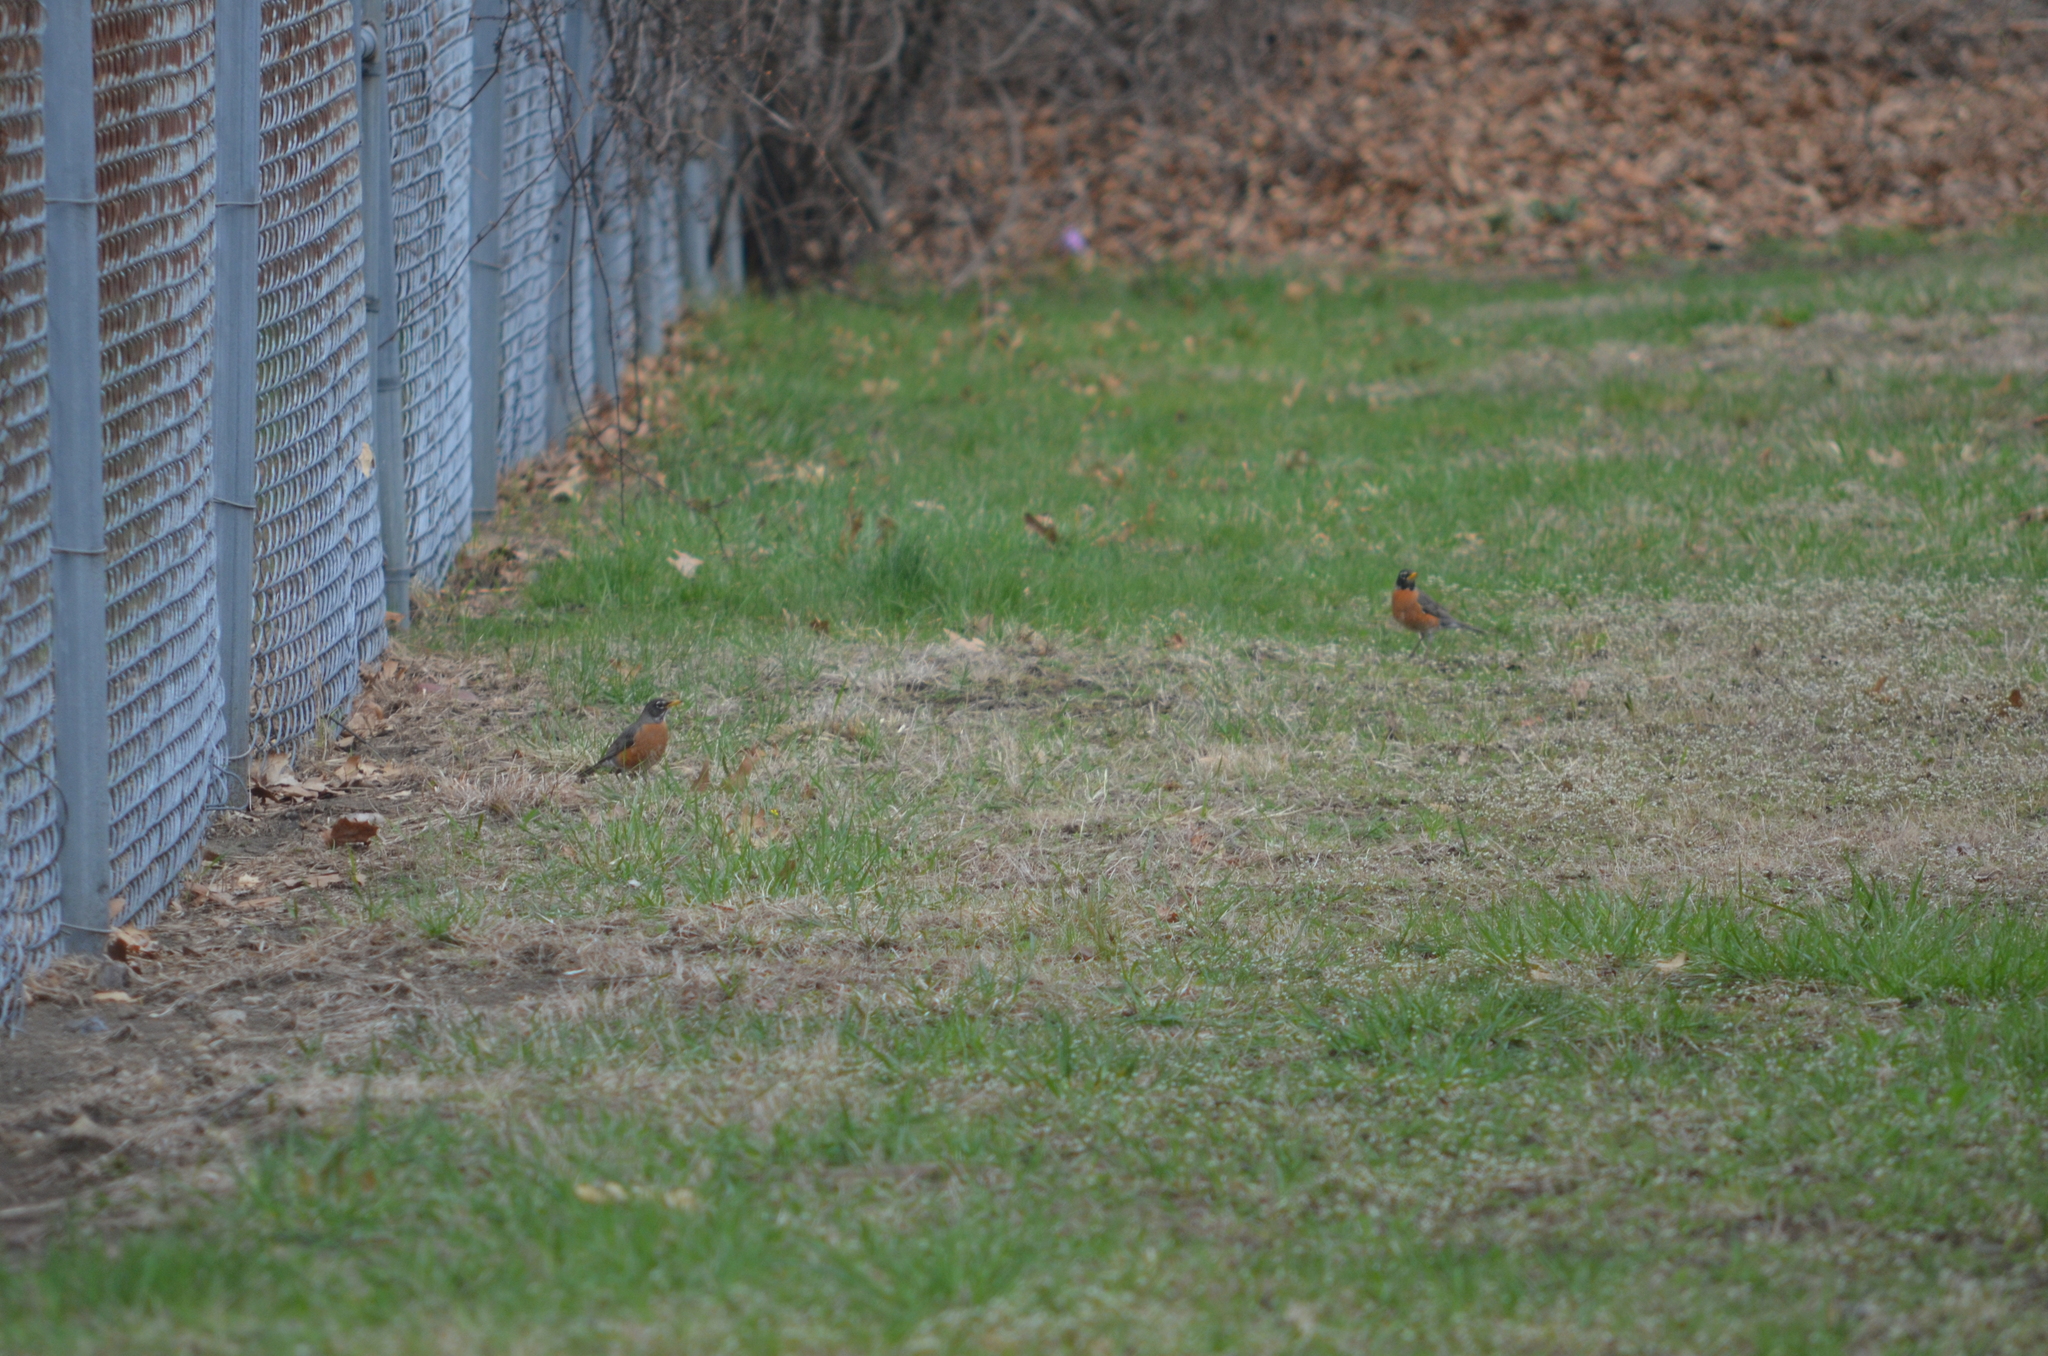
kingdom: Animalia
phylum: Chordata
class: Aves
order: Passeriformes
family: Turdidae
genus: Turdus
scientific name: Turdus migratorius
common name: American robin
